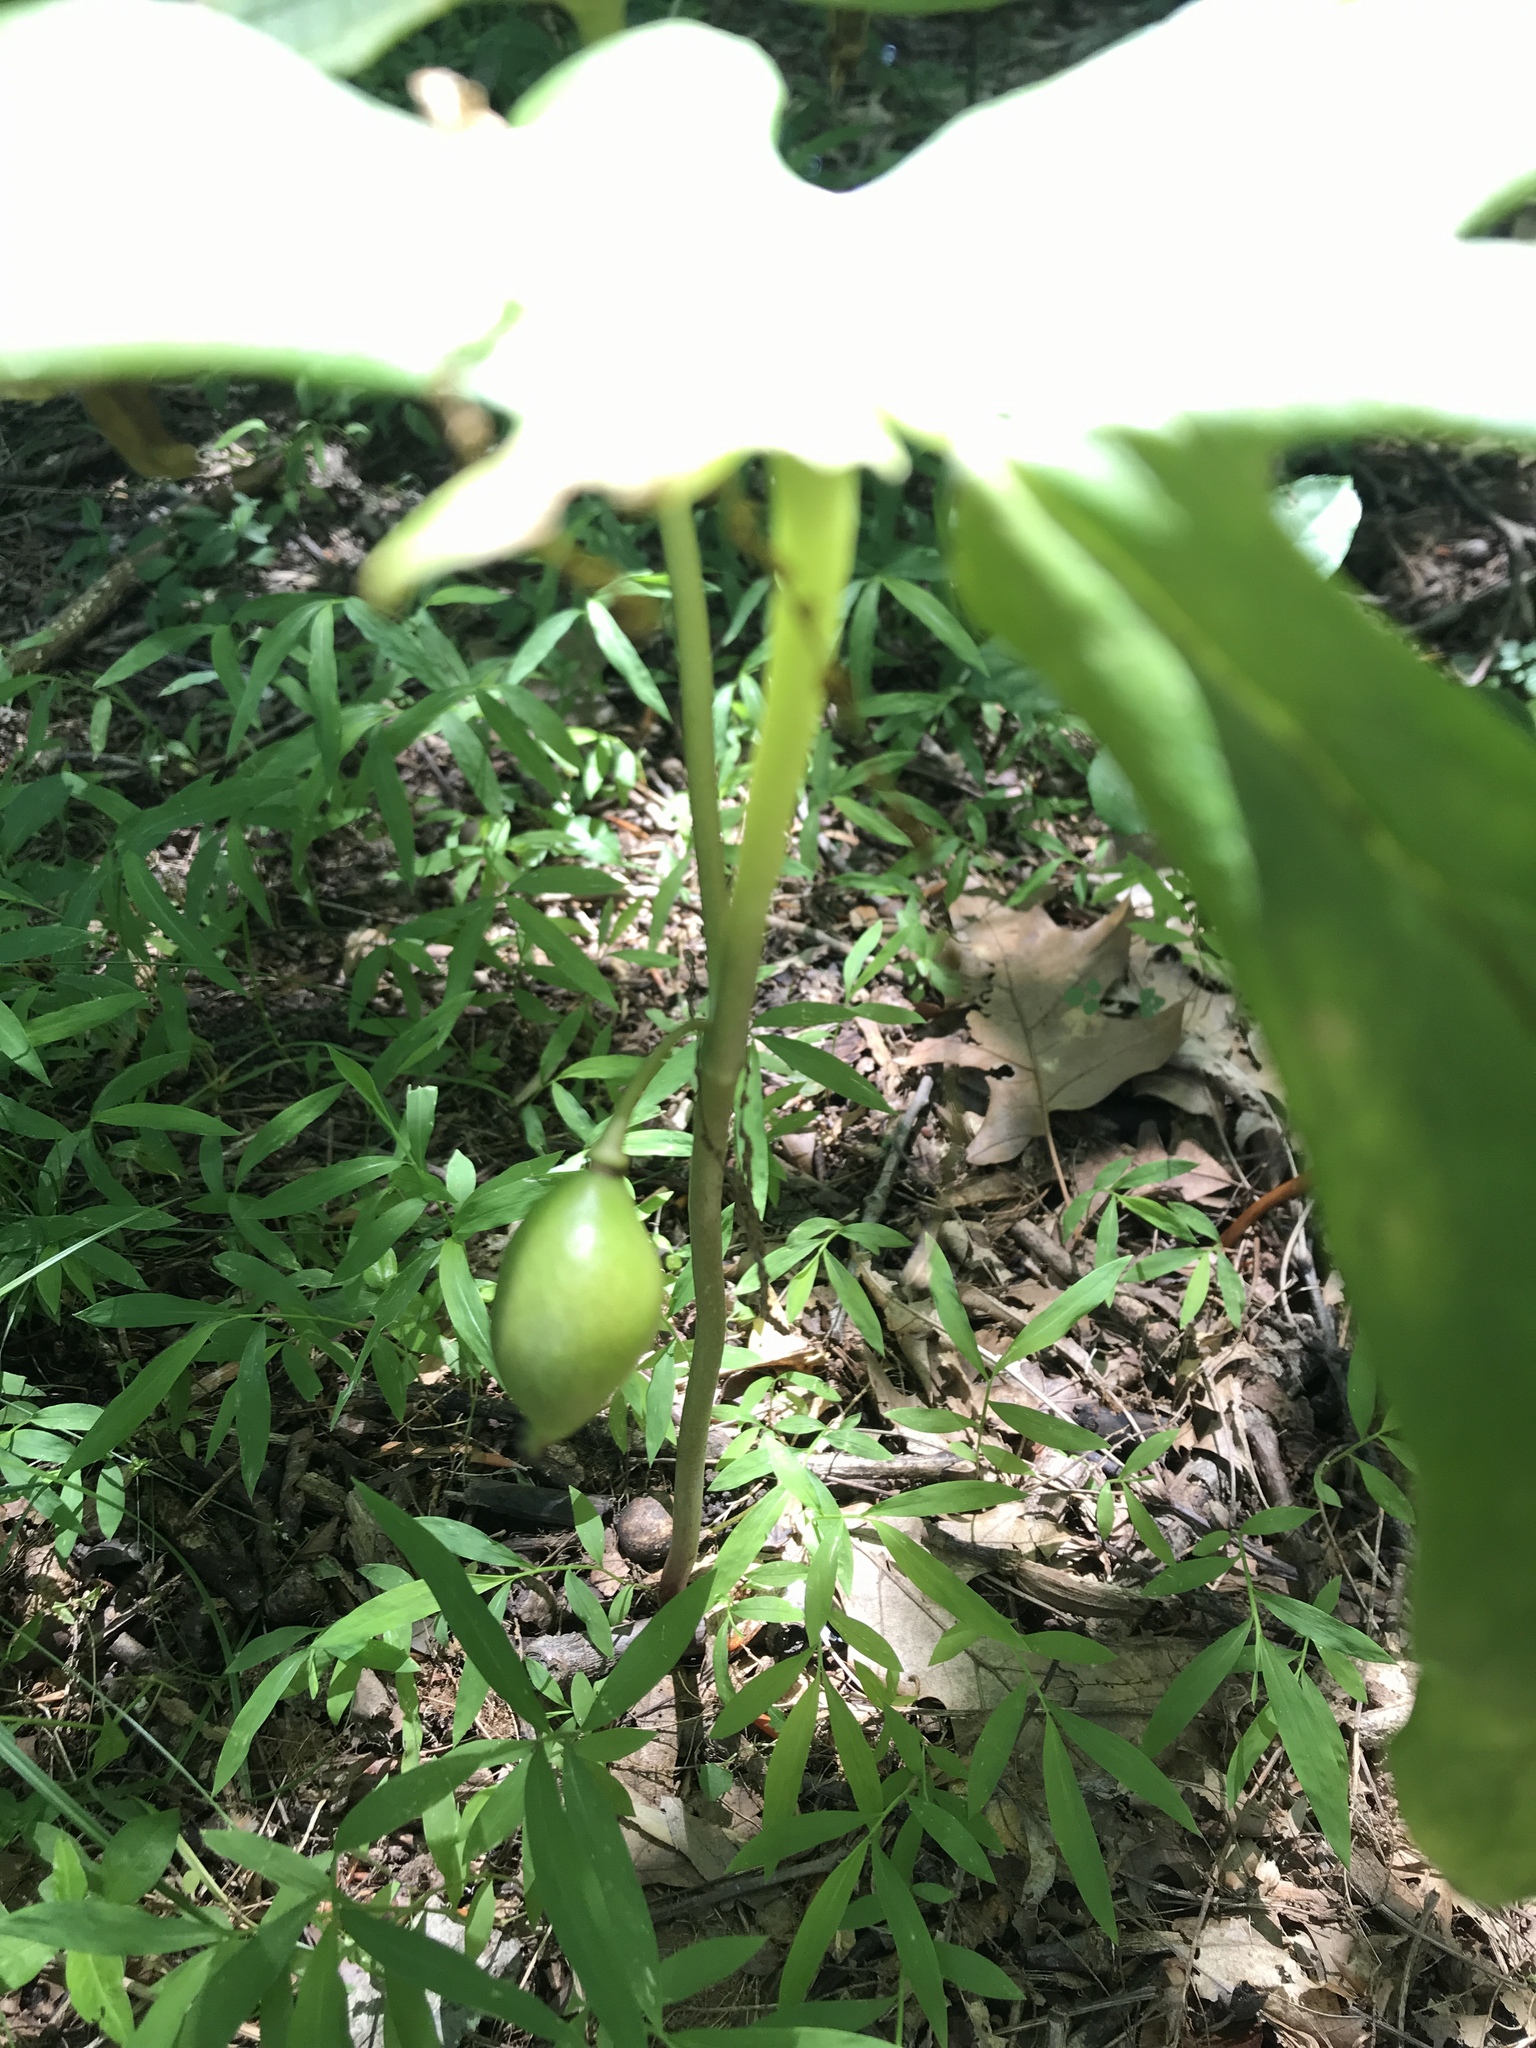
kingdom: Plantae
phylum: Tracheophyta
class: Magnoliopsida
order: Ranunculales
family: Berberidaceae
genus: Podophyllum
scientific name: Podophyllum peltatum
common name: Wild mandrake
